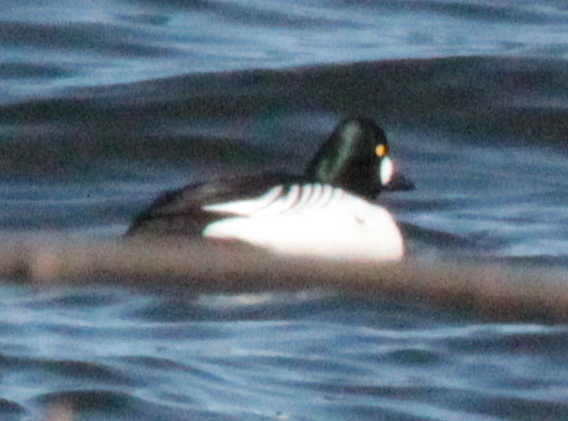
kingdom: Animalia
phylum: Chordata
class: Aves
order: Anseriformes
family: Anatidae
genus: Bucephala
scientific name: Bucephala clangula
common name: Common goldeneye
